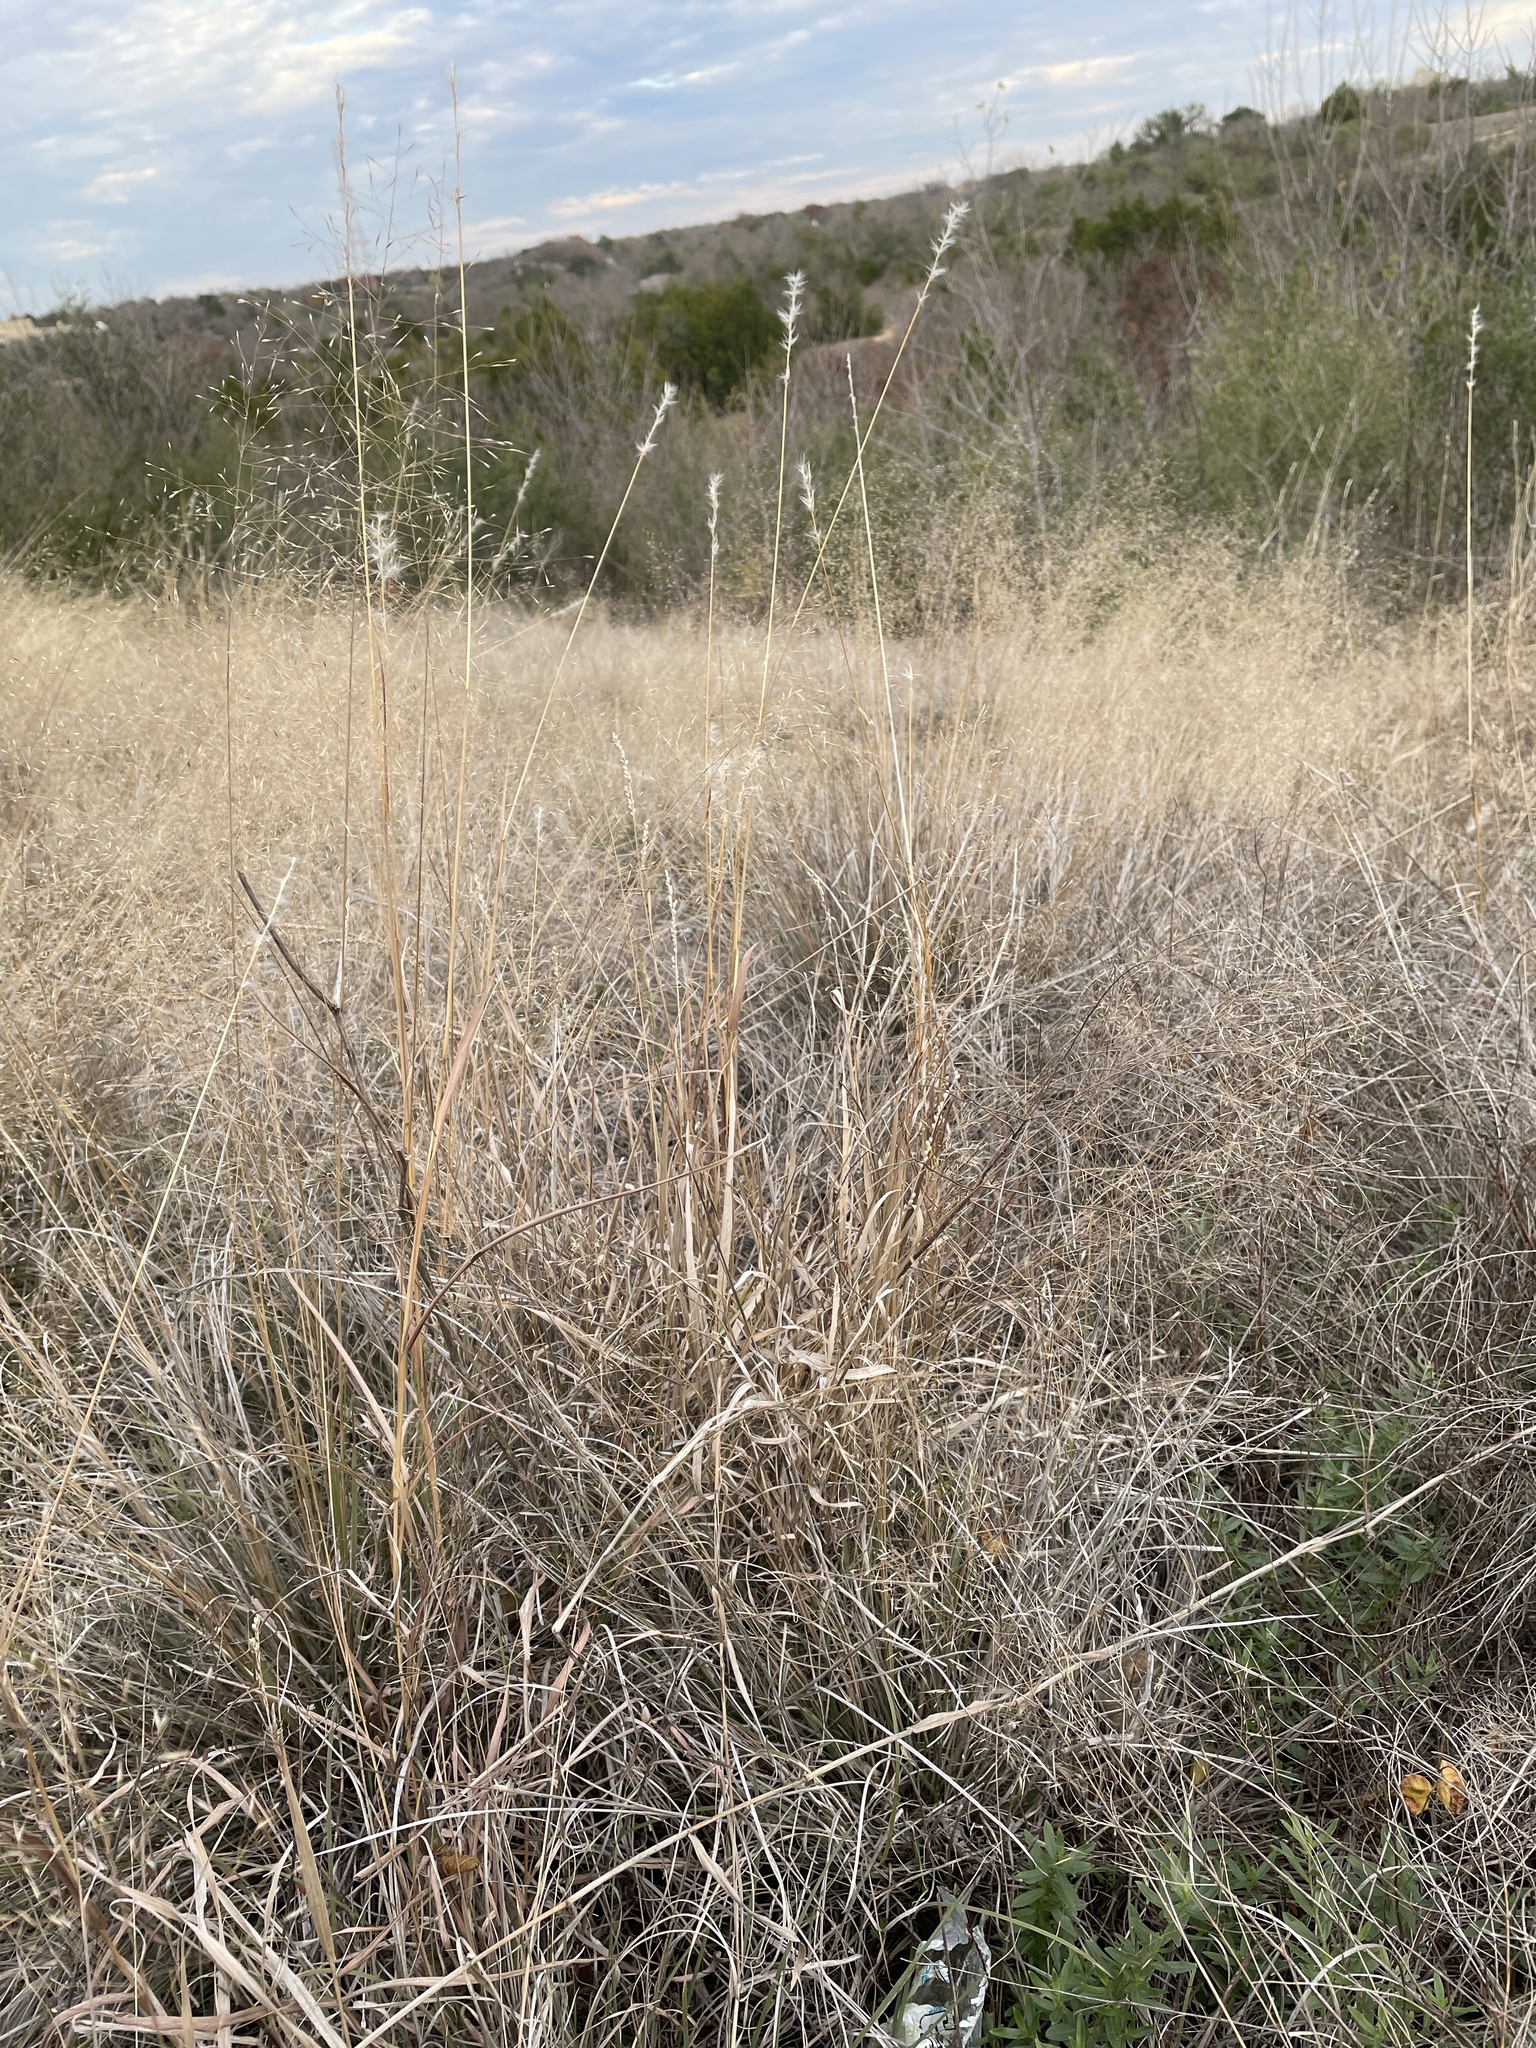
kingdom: Plantae
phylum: Tracheophyta
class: Liliopsida
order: Poales
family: Poaceae
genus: Muhlenbergia
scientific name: Muhlenbergia reverchonii
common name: Seep muhly
